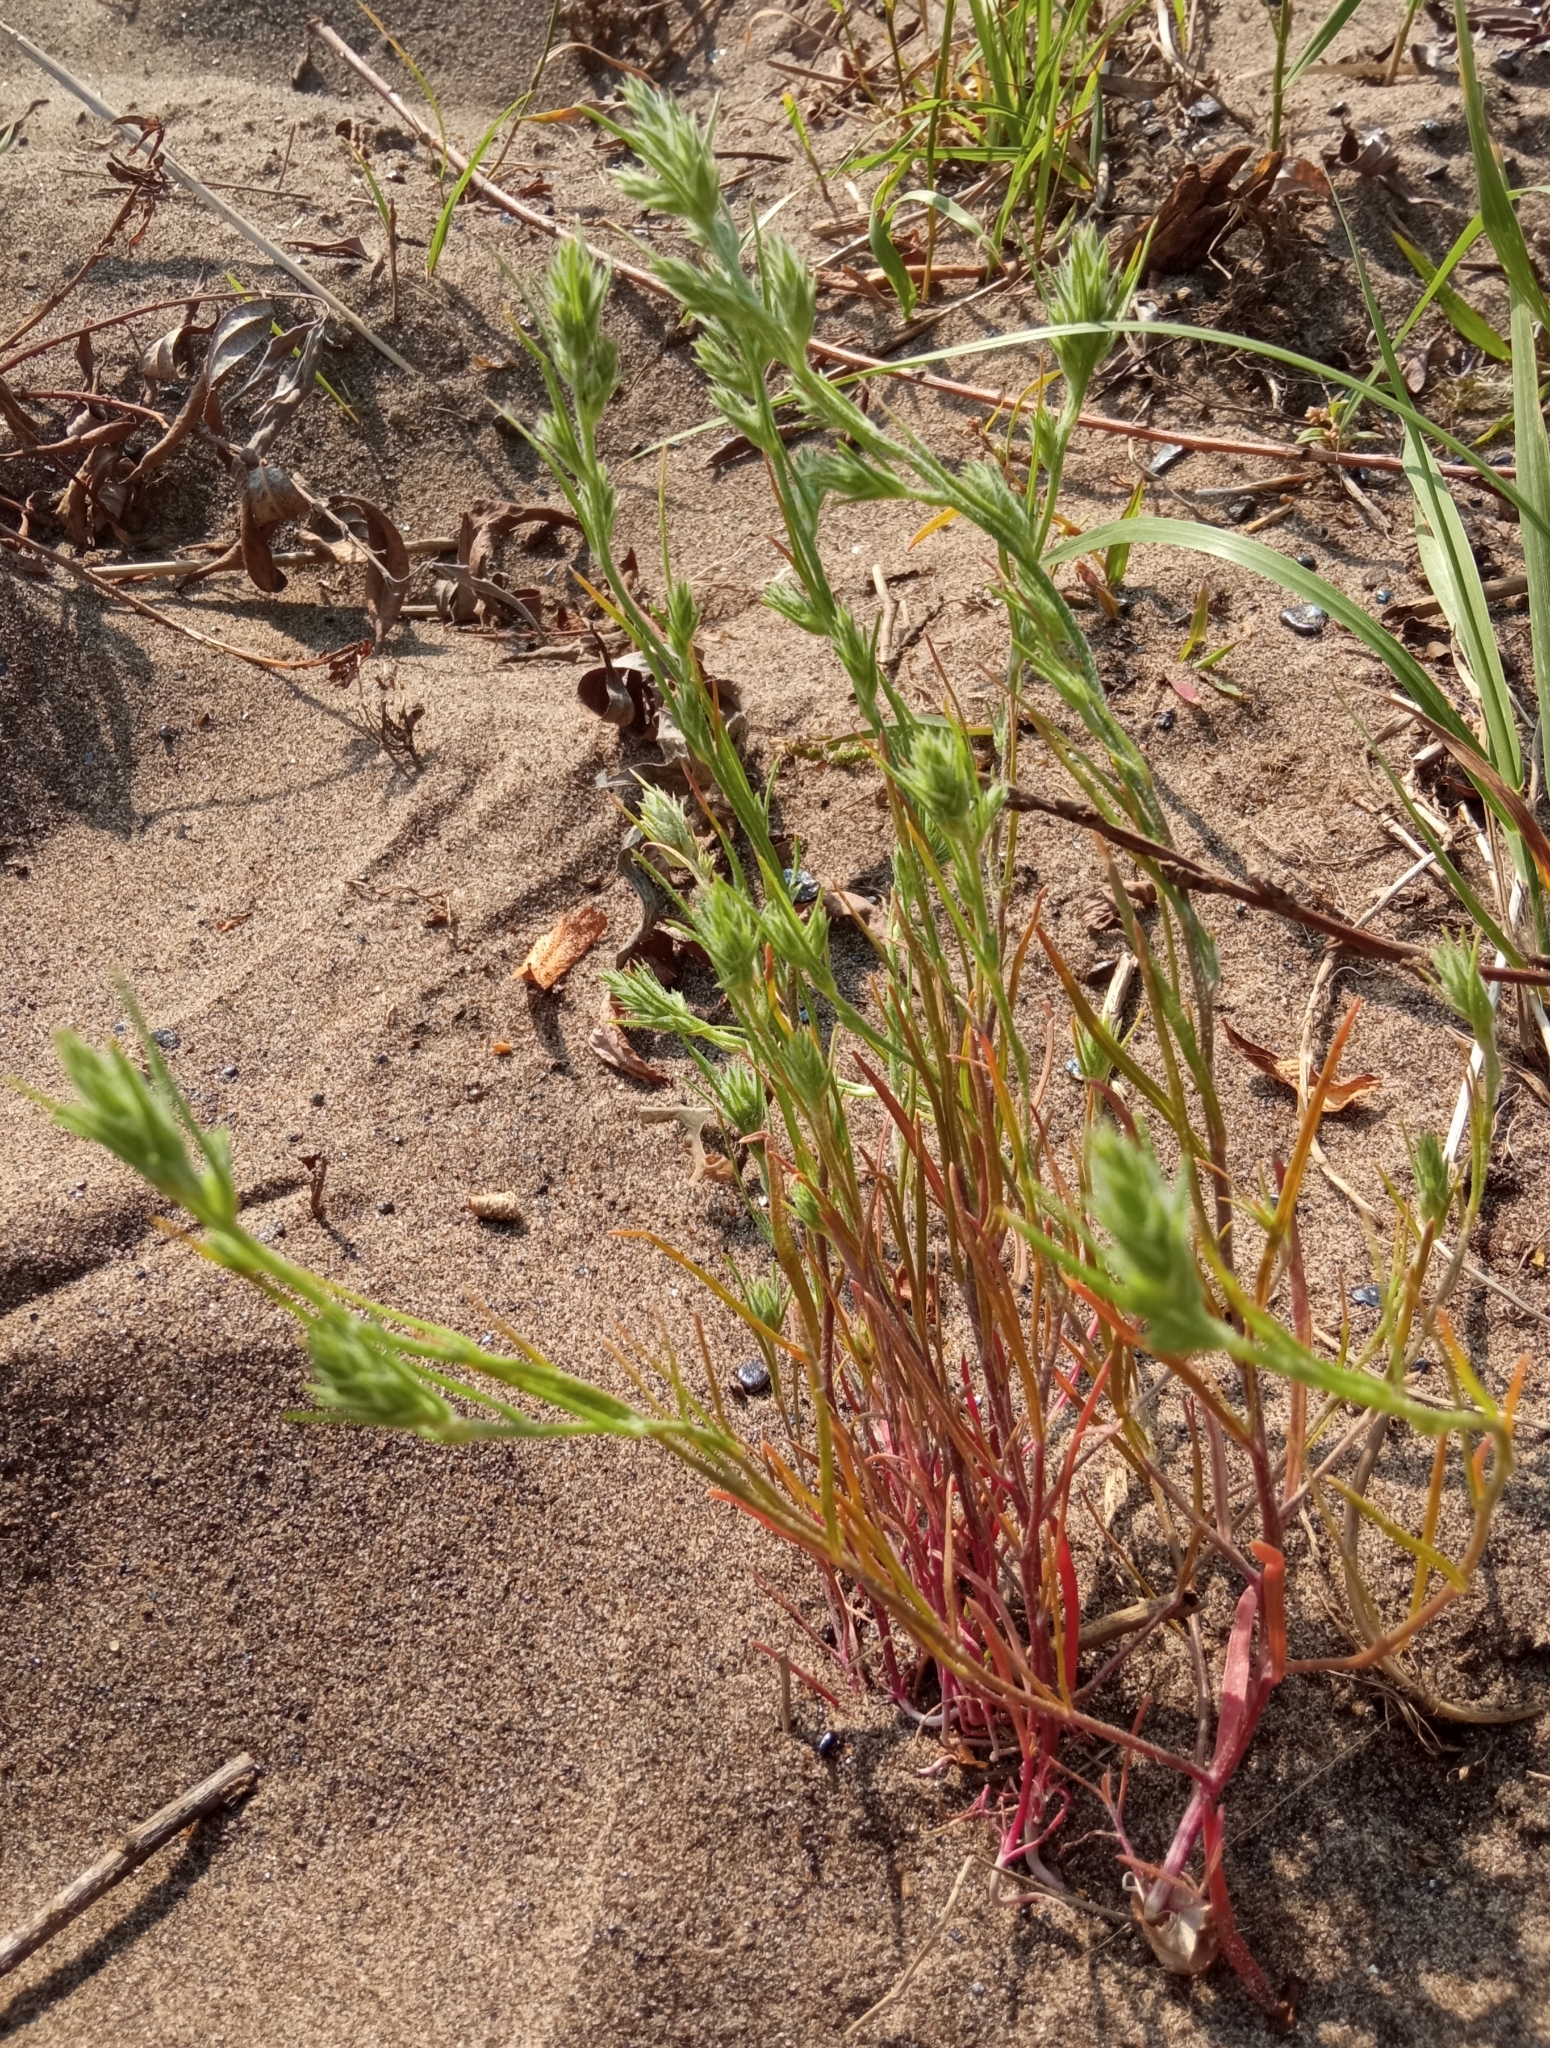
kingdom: Plantae
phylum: Tracheophyta
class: Magnoliopsida
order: Caryophyllales
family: Amaranthaceae
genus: Corispermum
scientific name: Corispermum
